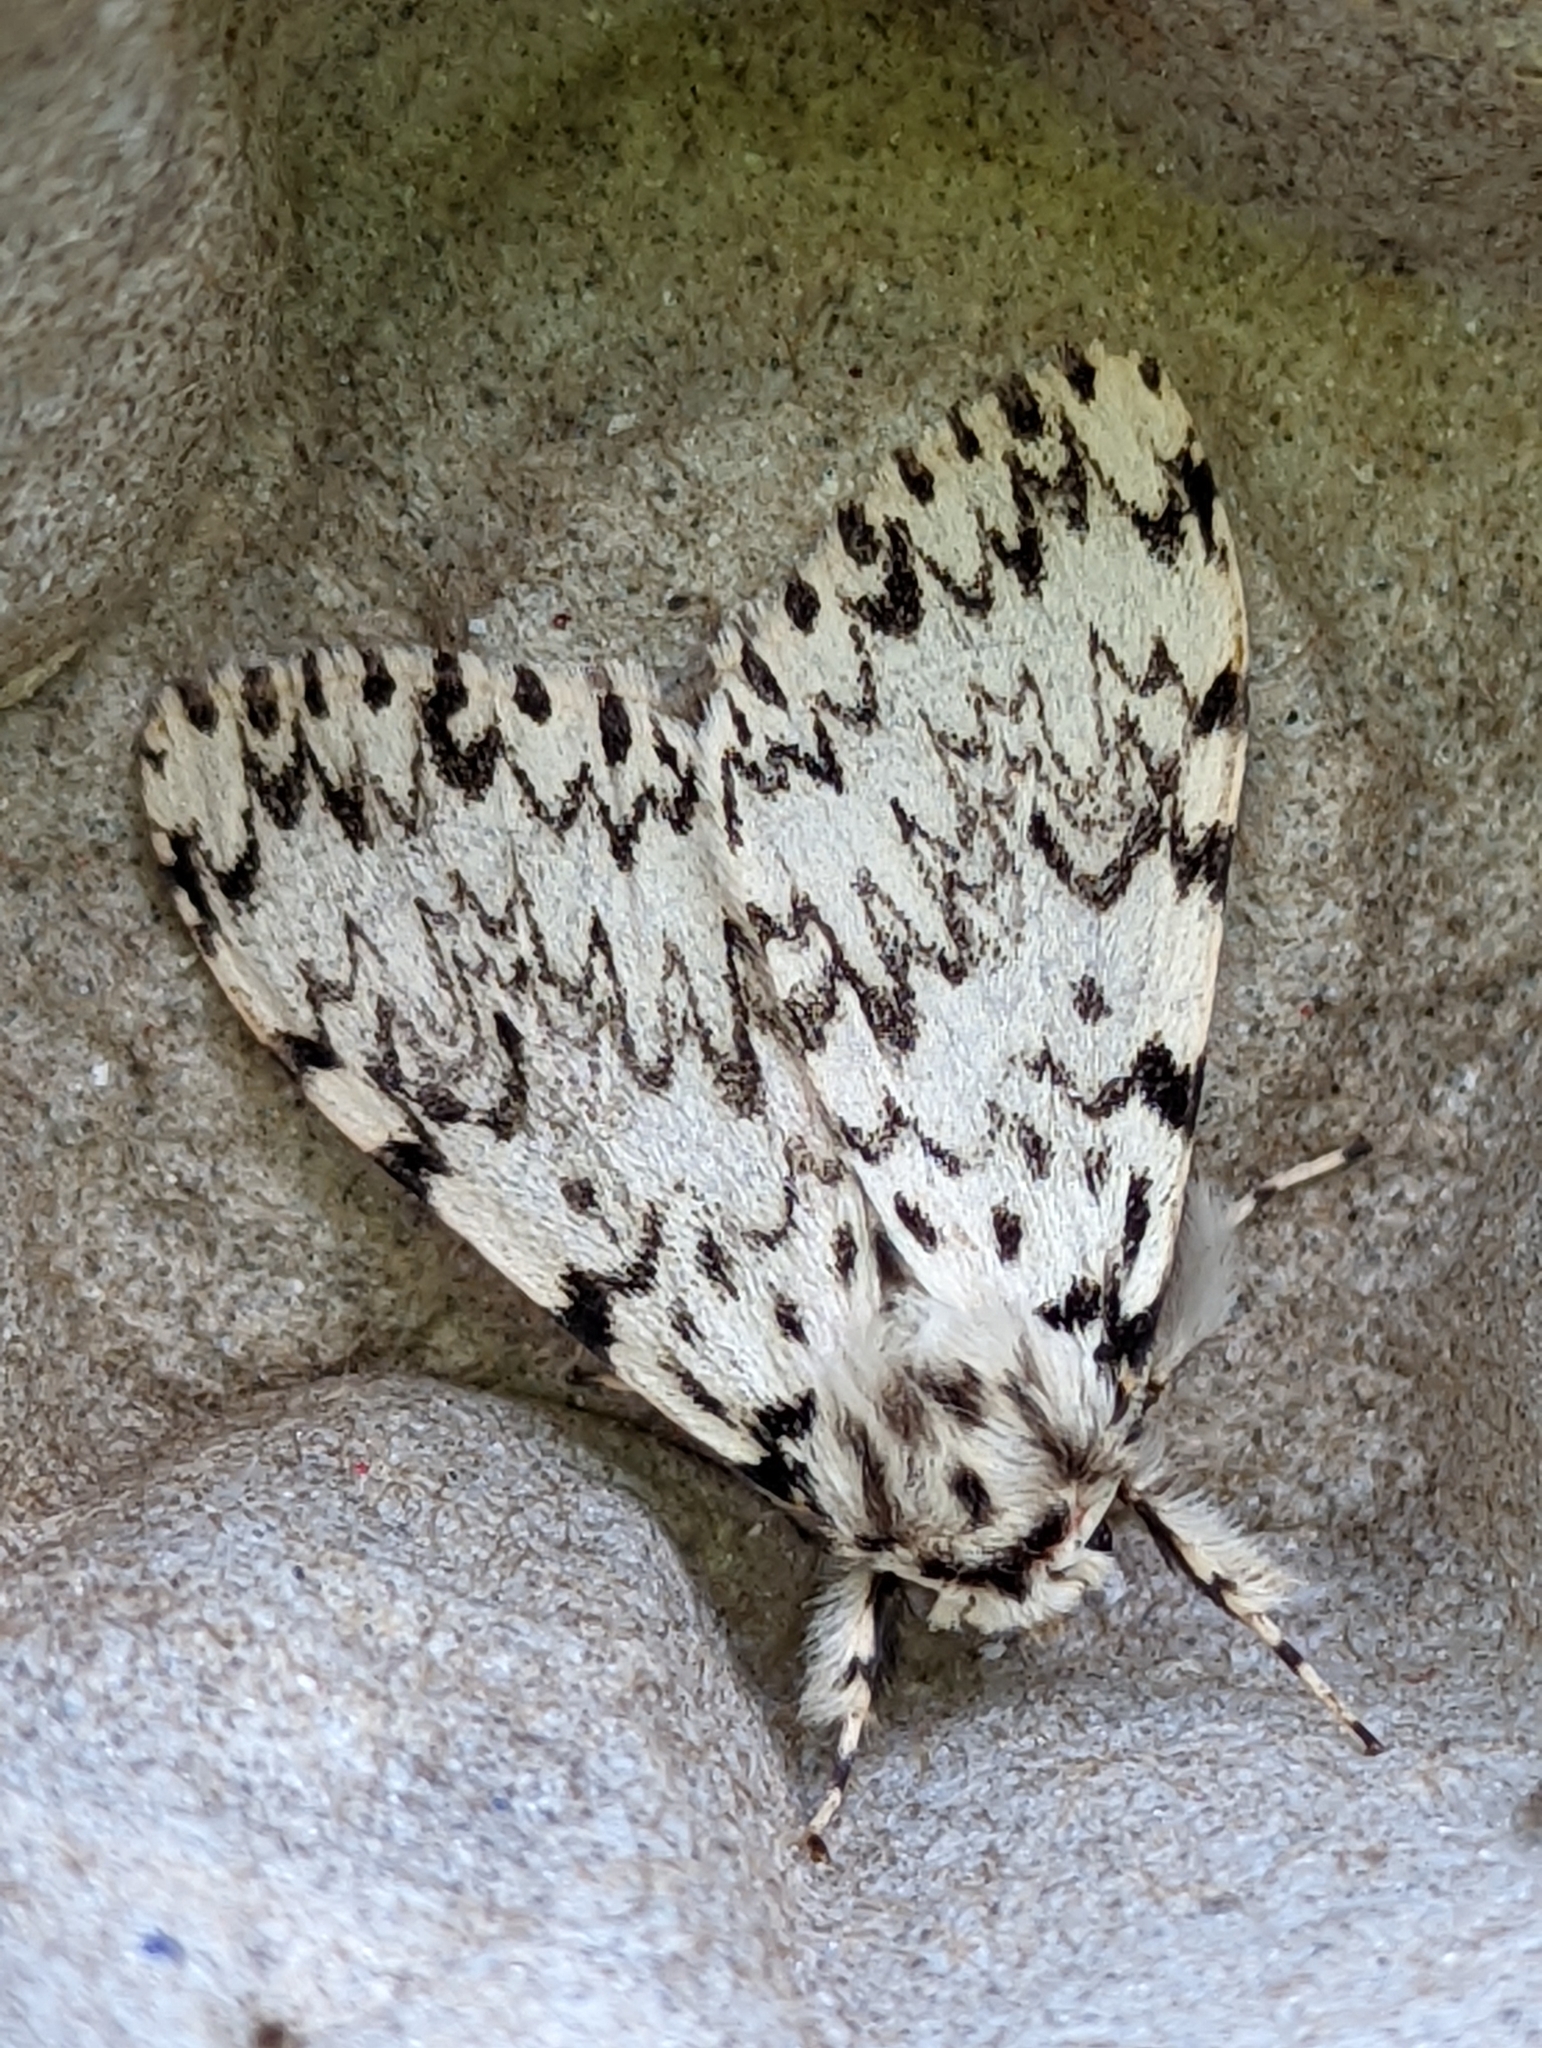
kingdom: Animalia
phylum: Arthropoda
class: Insecta
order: Lepidoptera
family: Erebidae
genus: Lymantria
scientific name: Lymantria monacha
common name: Black arches
